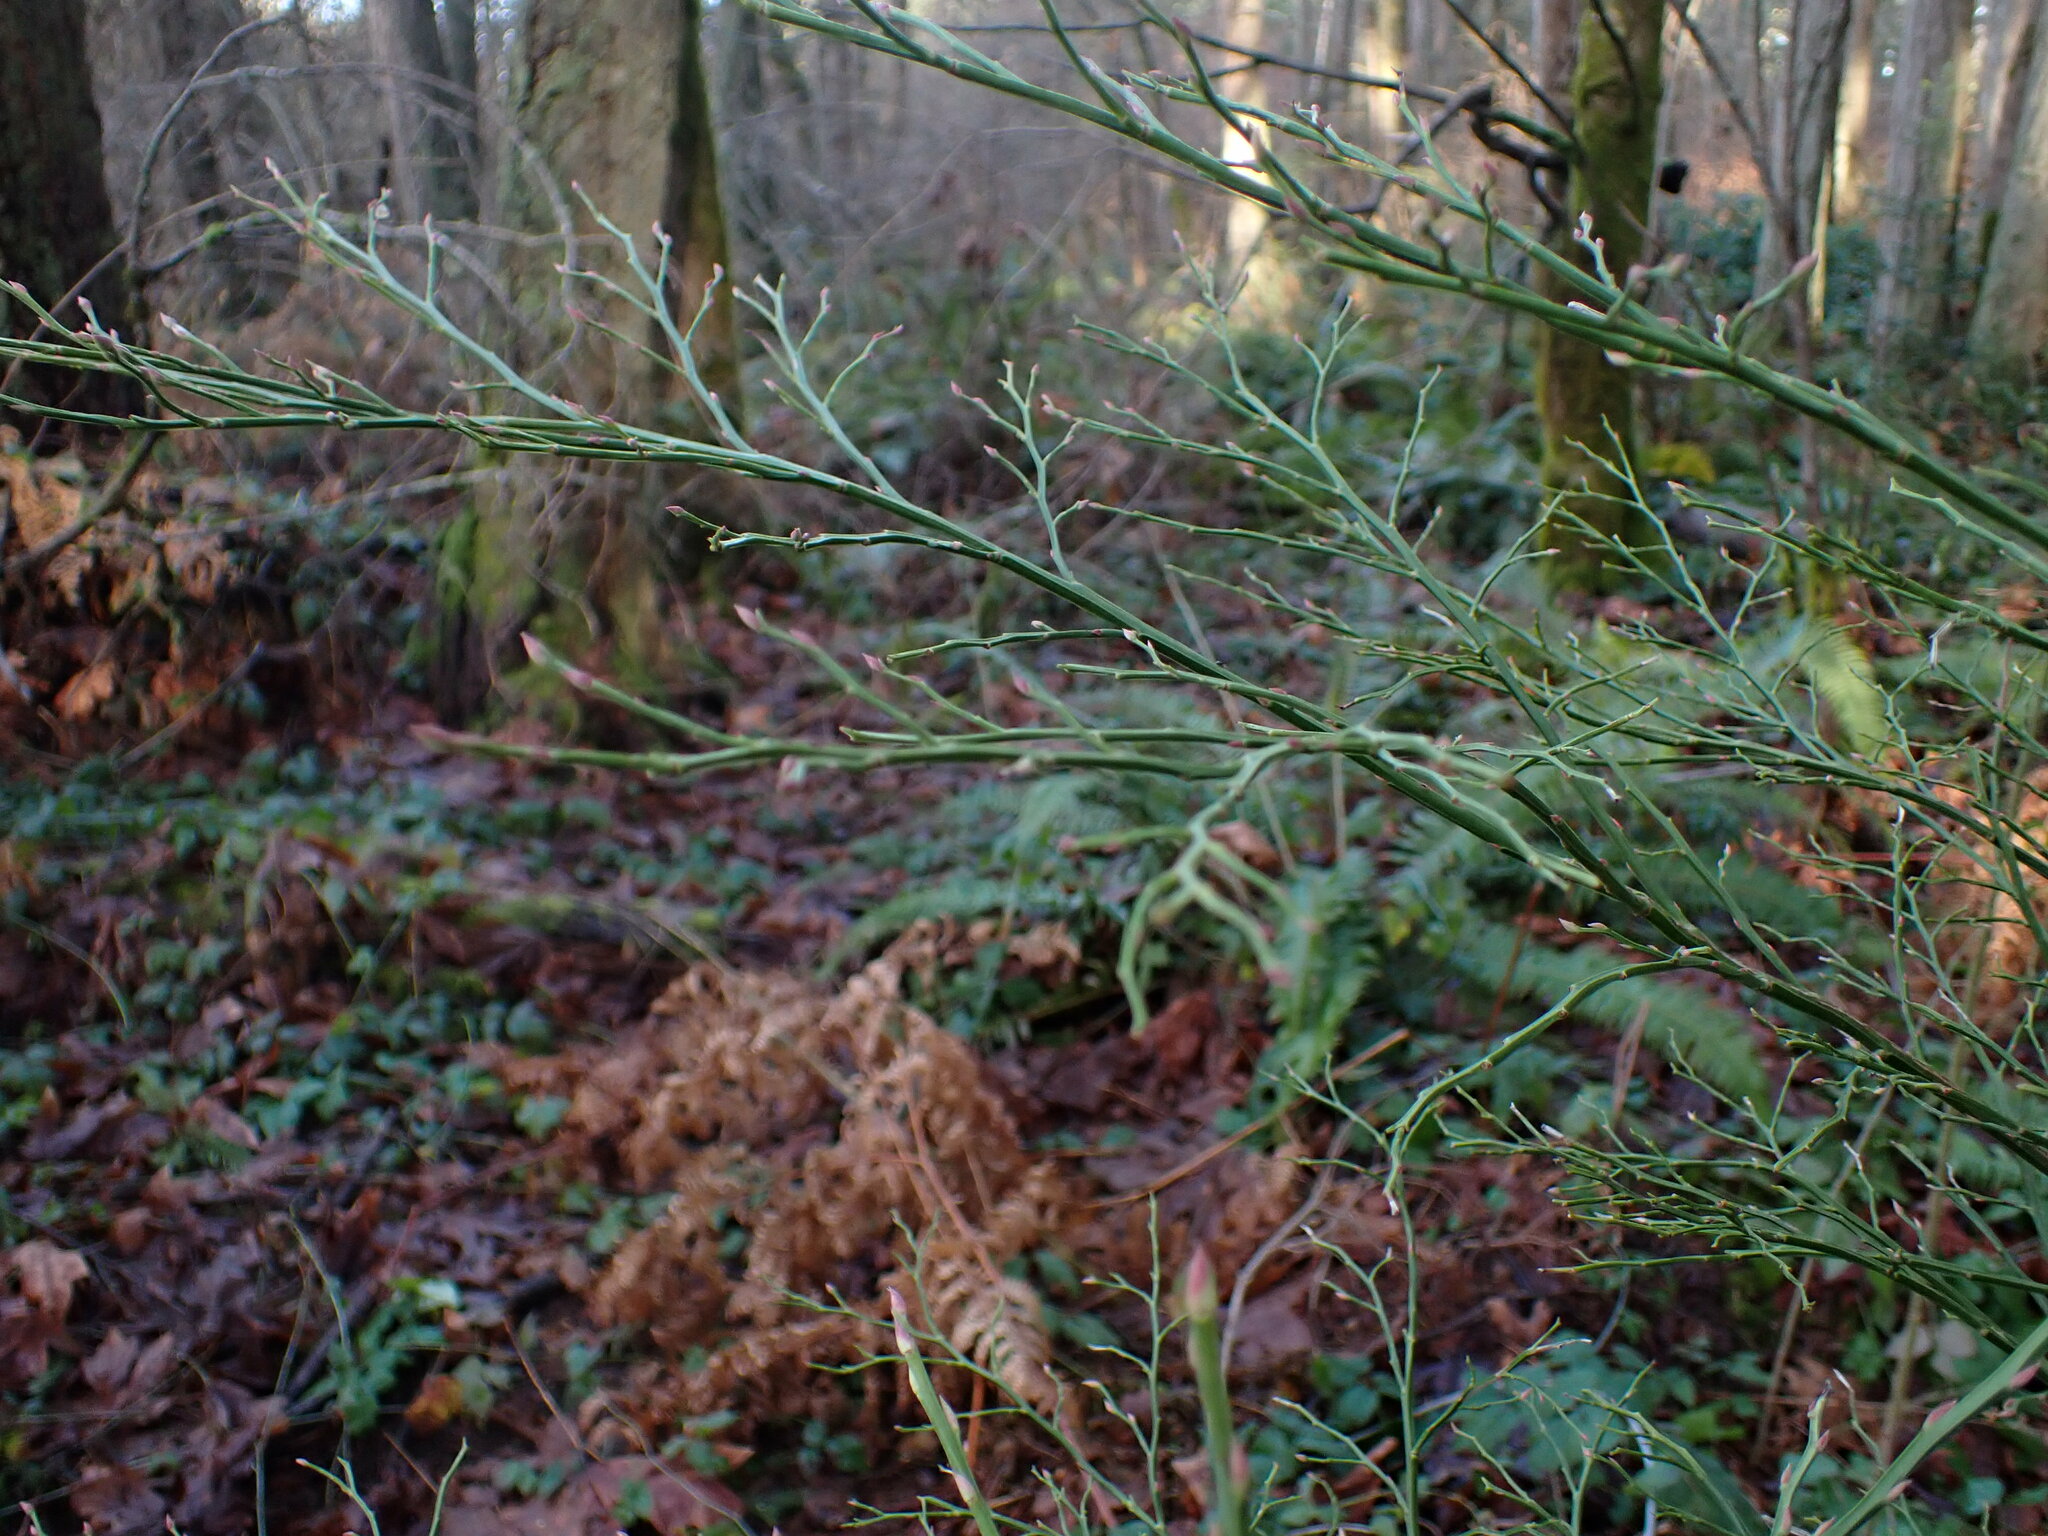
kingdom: Plantae
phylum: Tracheophyta
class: Magnoliopsida
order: Ericales
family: Ericaceae
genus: Vaccinium
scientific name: Vaccinium parvifolium
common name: Red-huckleberry
